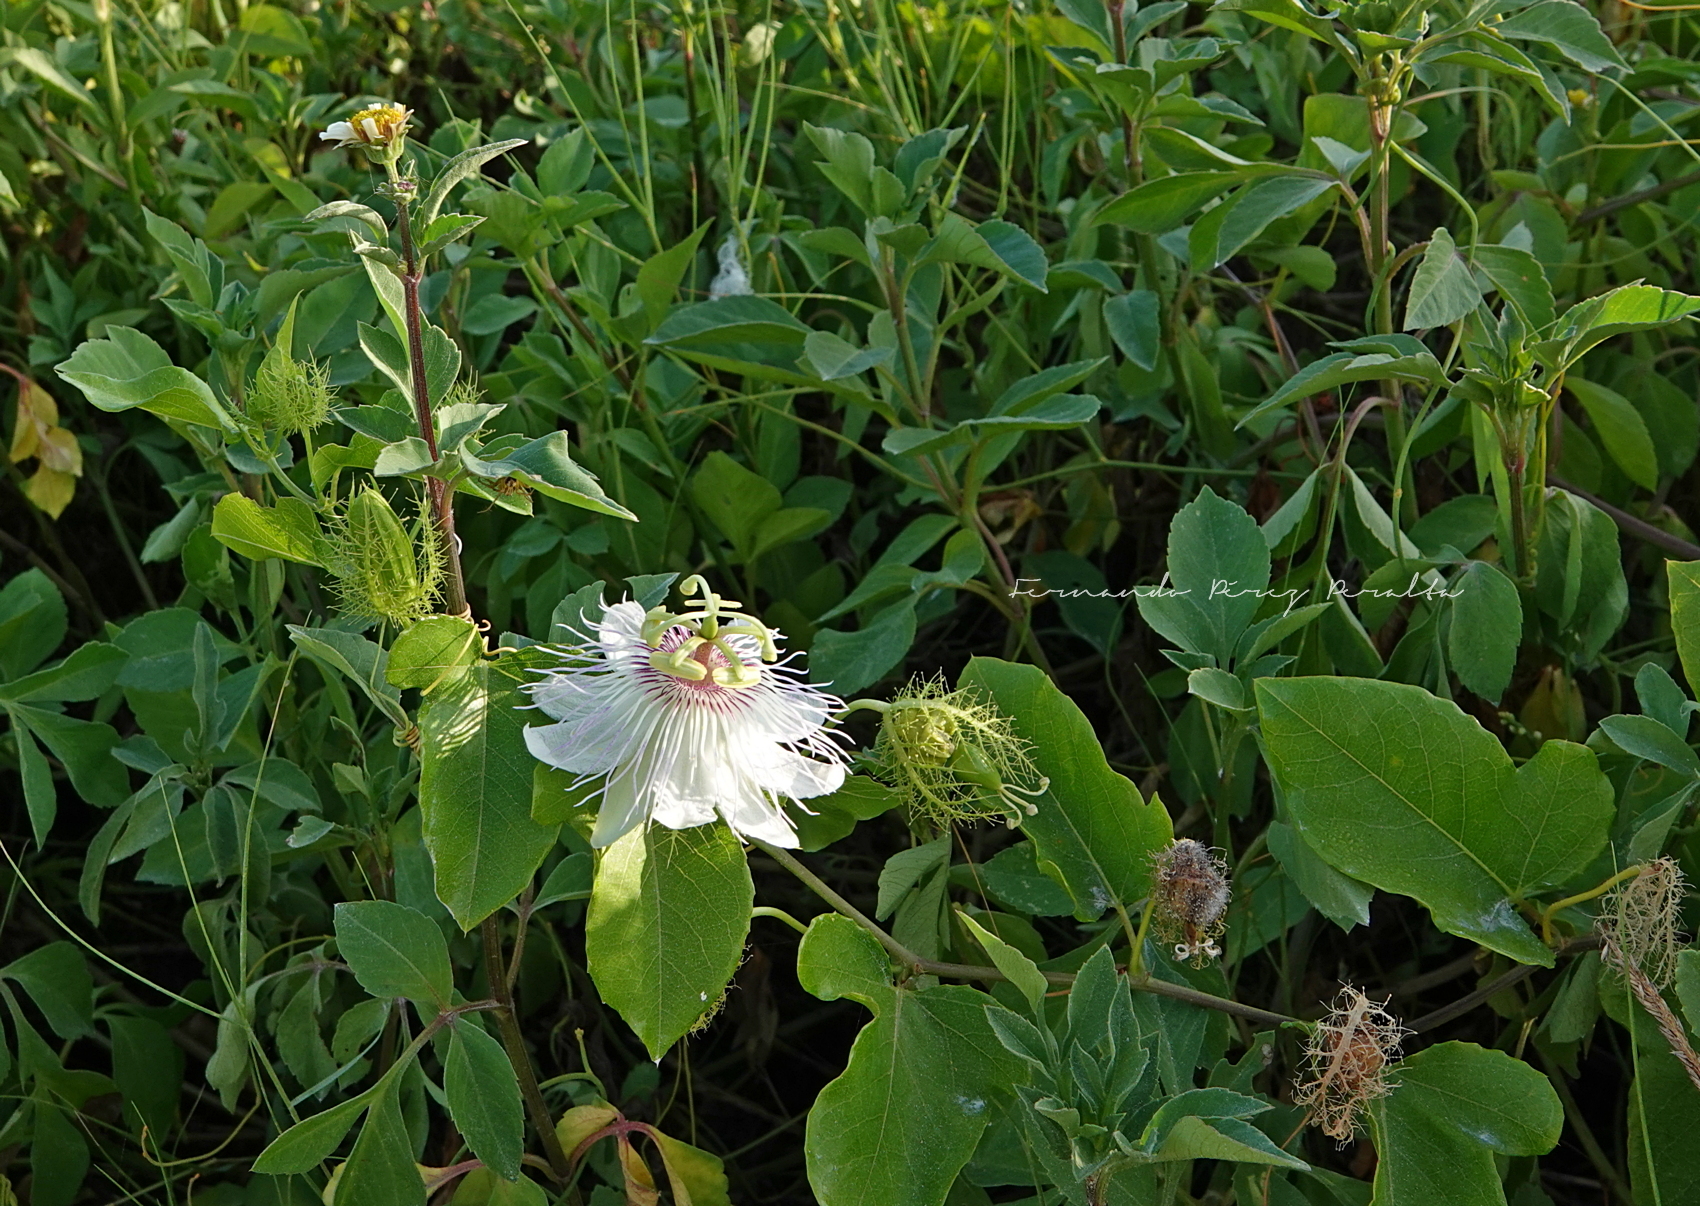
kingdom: Plantae
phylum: Tracheophyta
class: Magnoliopsida
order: Malpighiales
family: Passifloraceae
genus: Passiflora
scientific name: Passiflora ciliata
